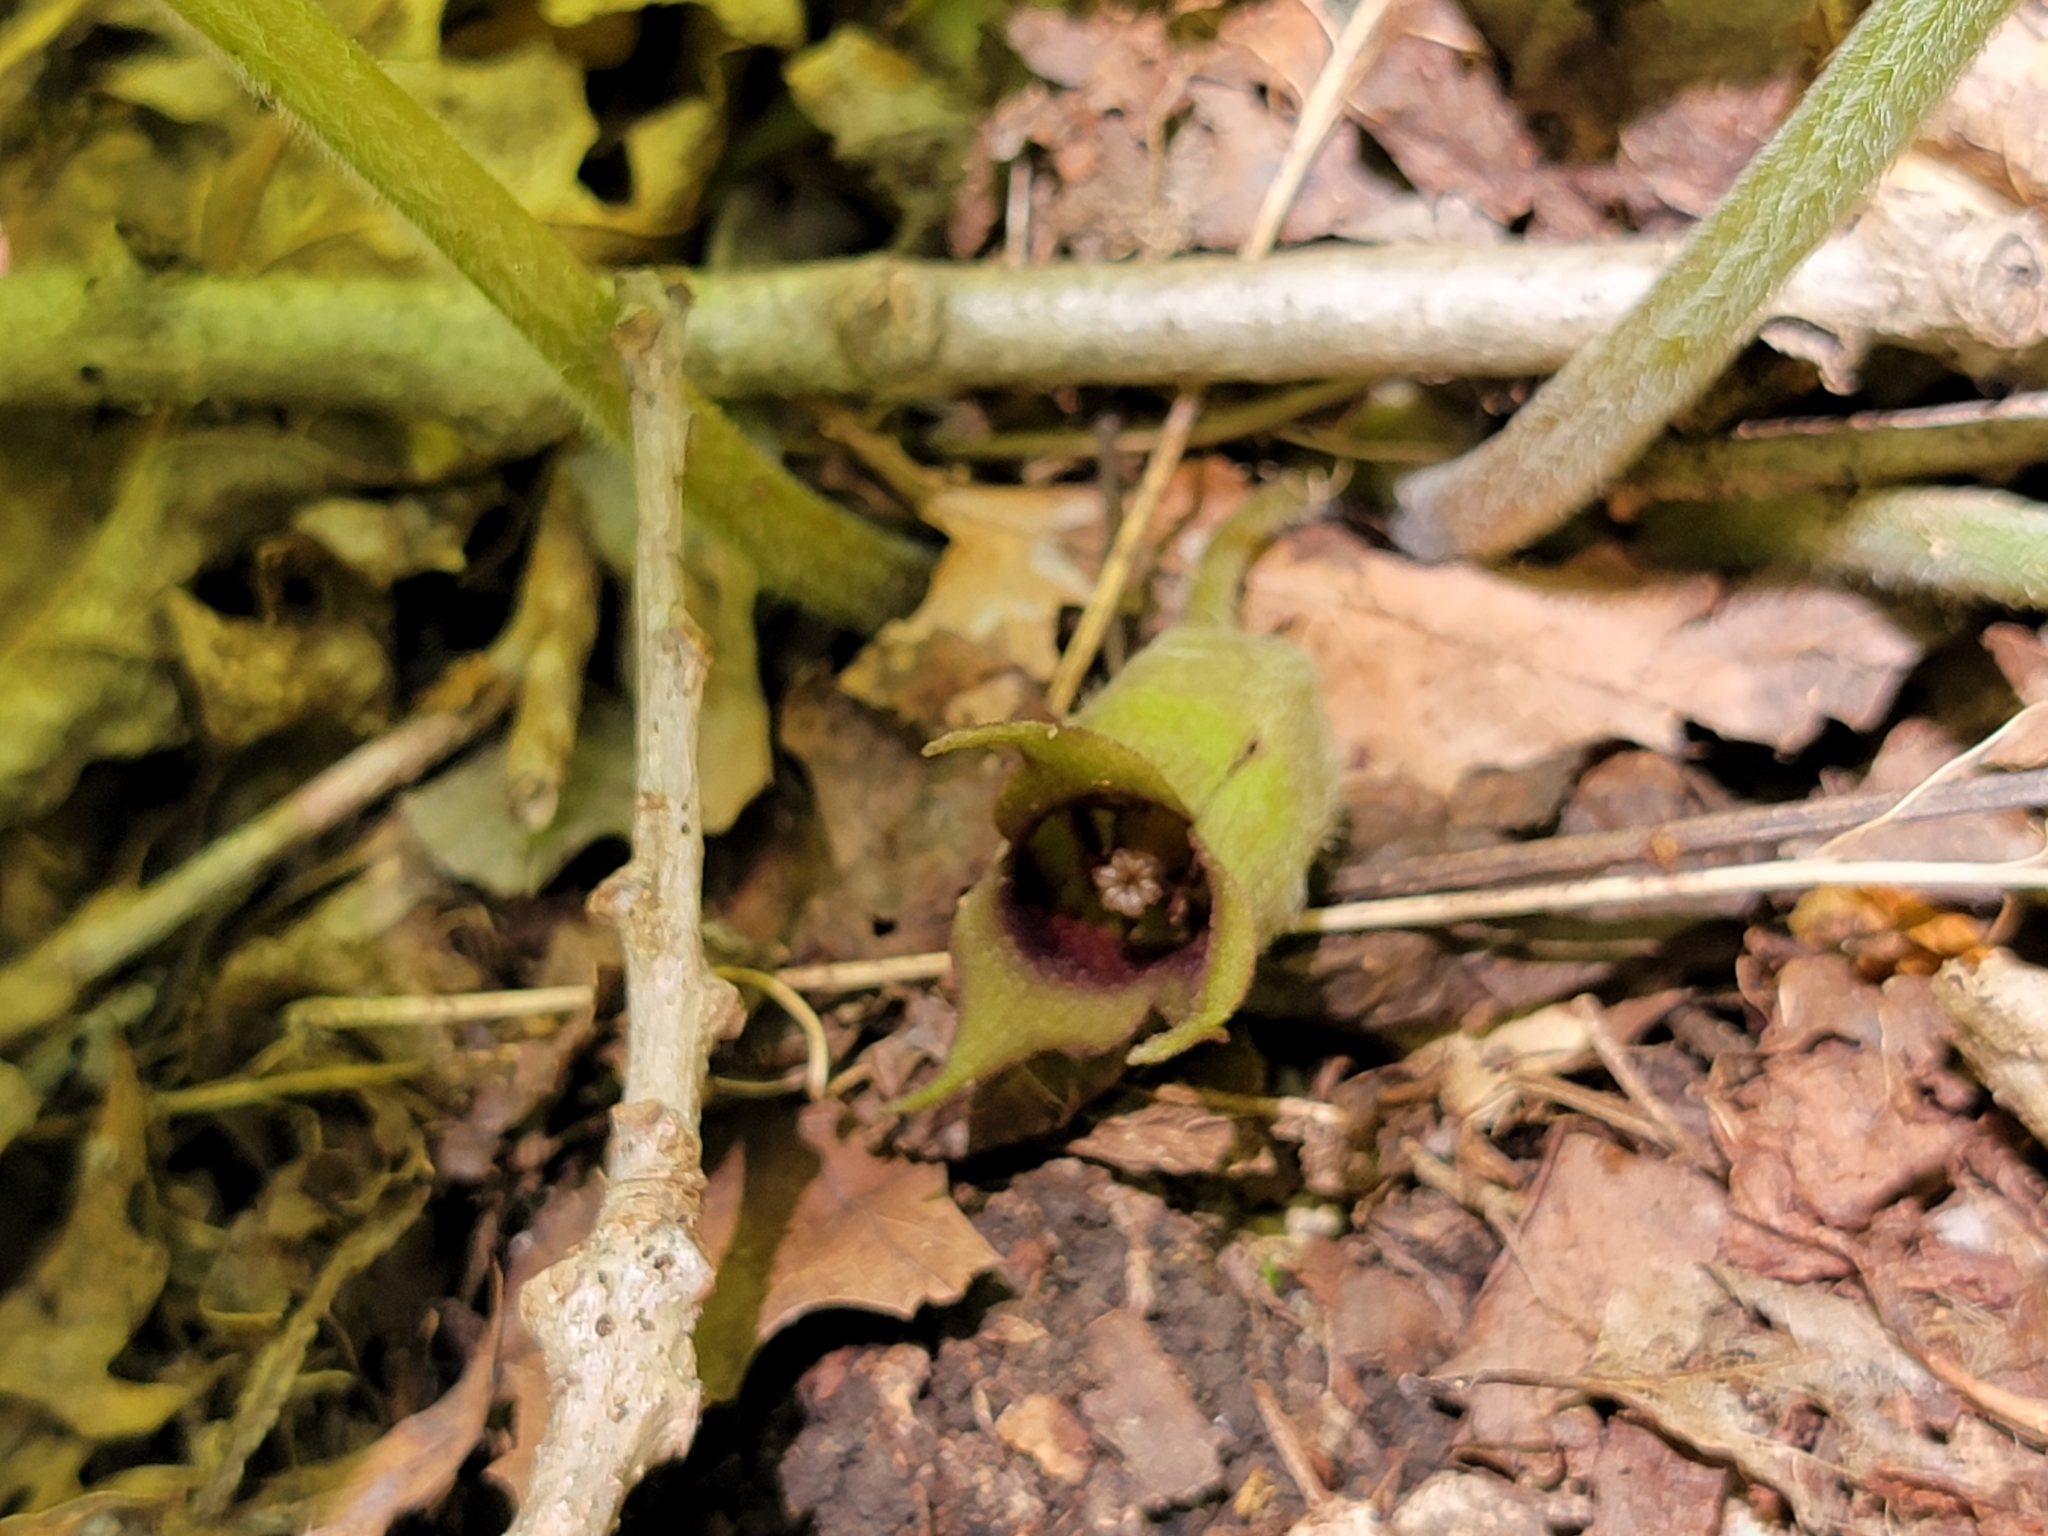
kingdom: Plantae
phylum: Tracheophyta
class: Magnoliopsida
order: Piperales
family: Aristolochiaceae
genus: Asarum
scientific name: Asarum canadense
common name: Wild ginger
